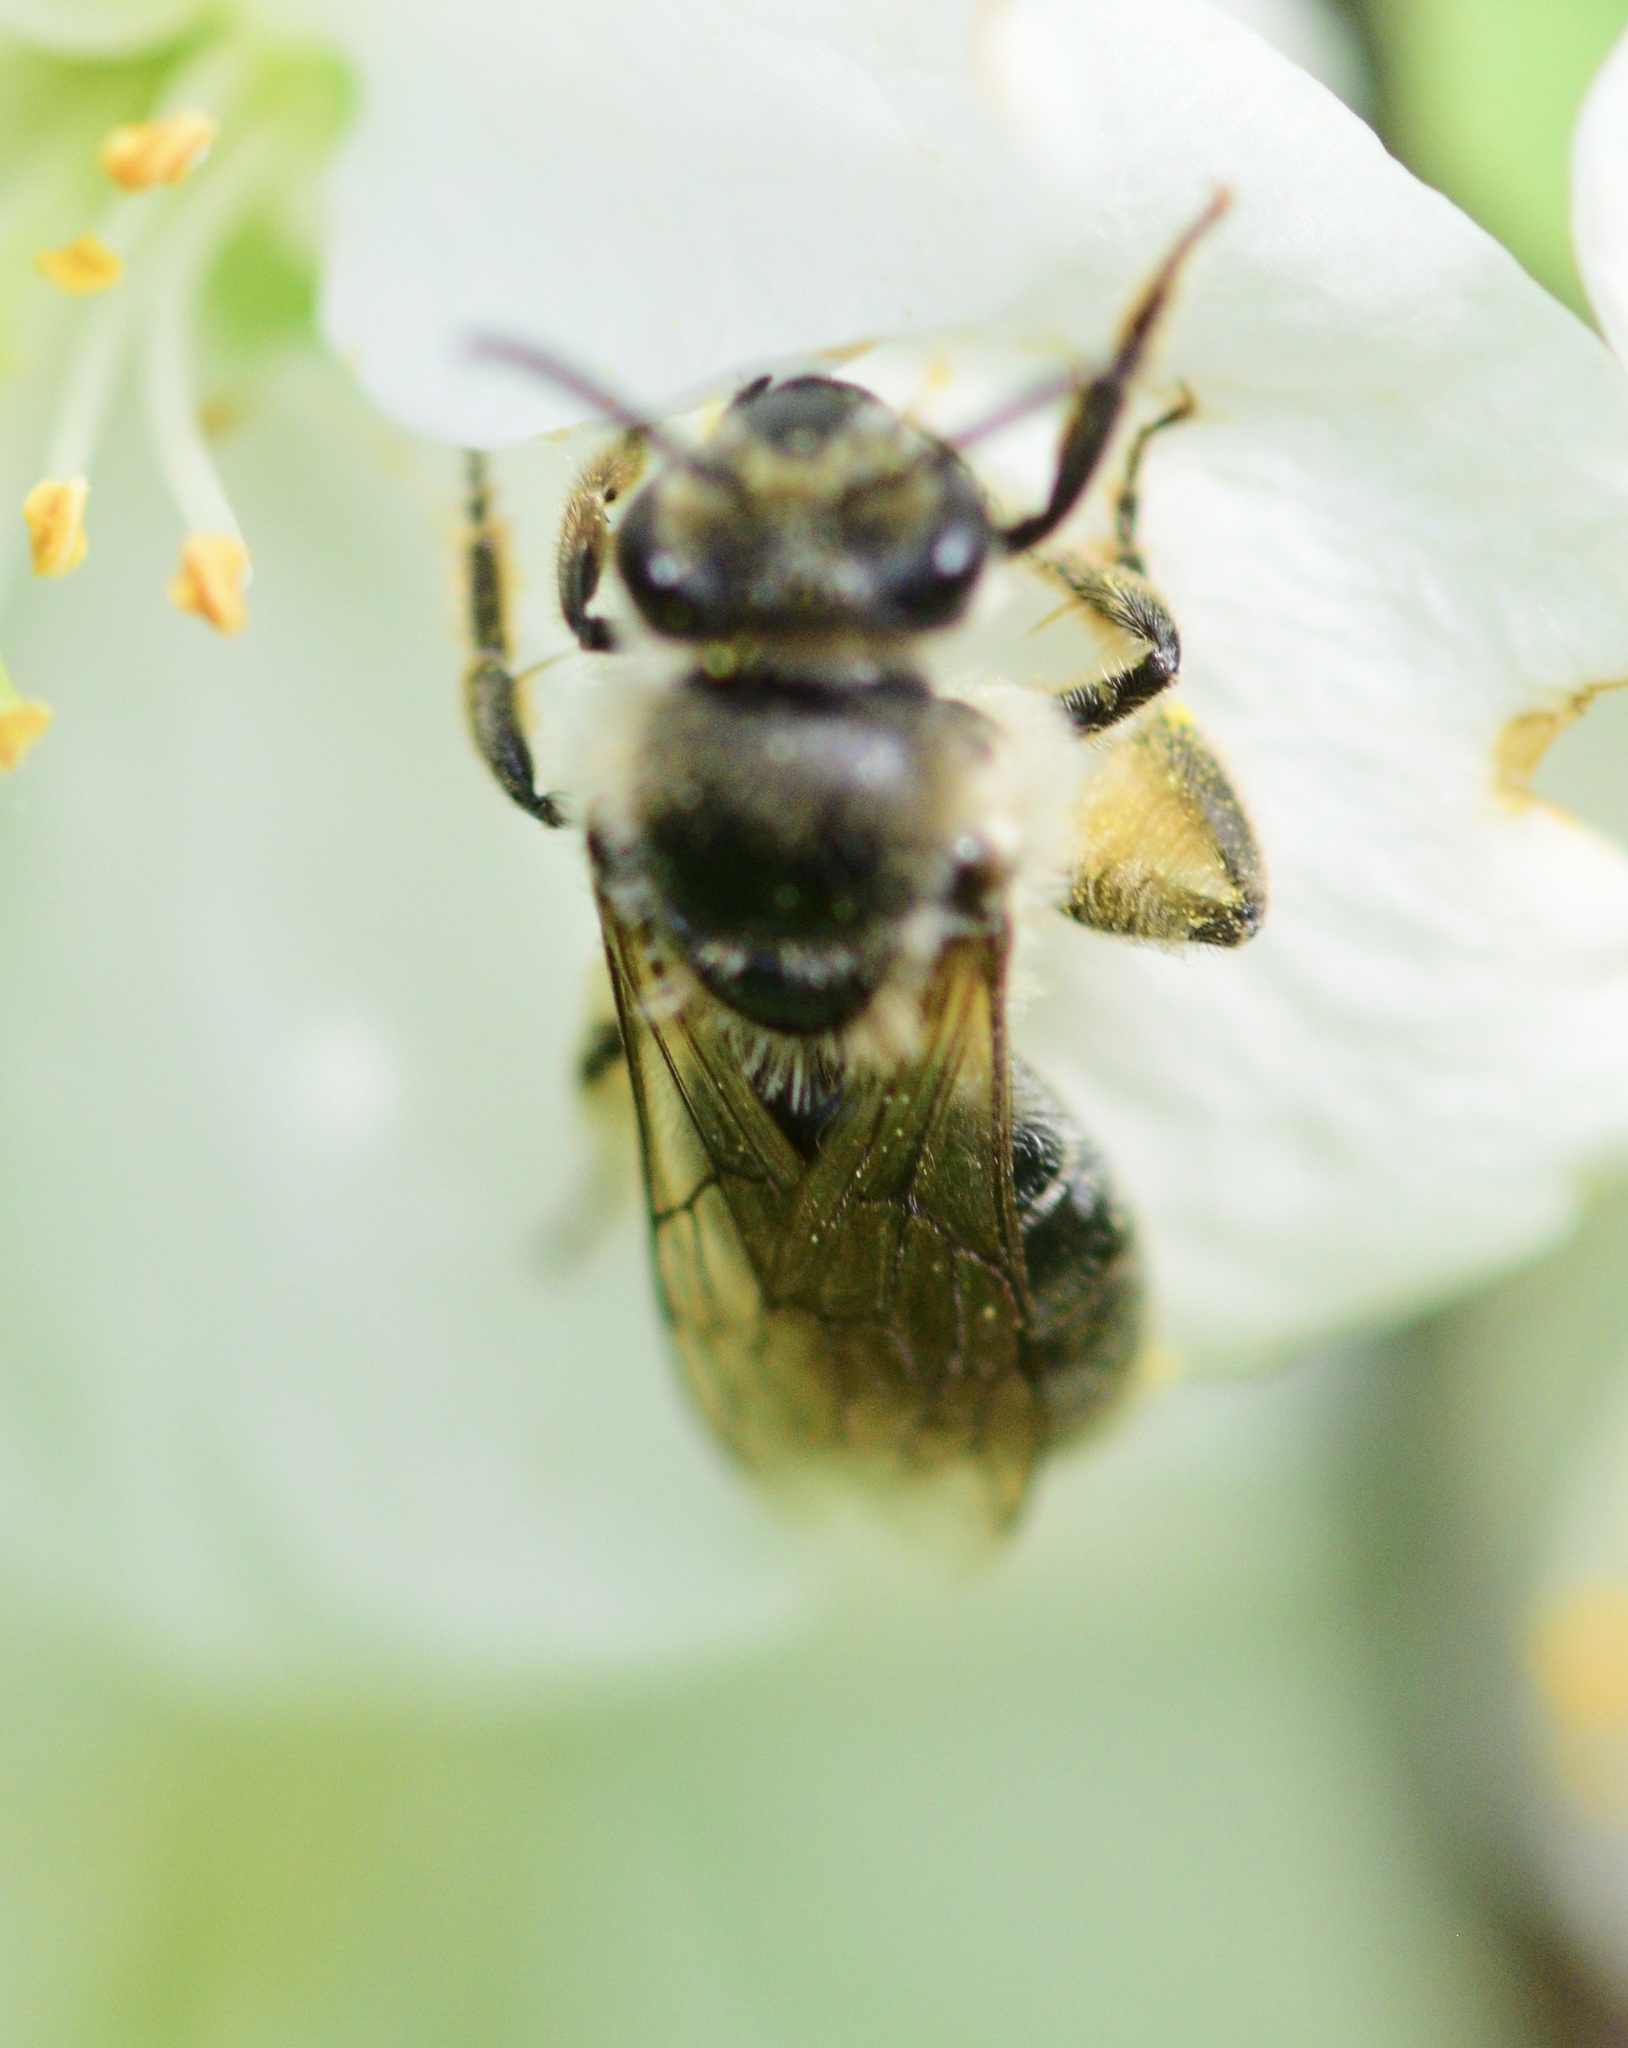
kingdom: Animalia
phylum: Arthropoda
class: Insecta
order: Hymenoptera
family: Colletidae
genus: Colletes
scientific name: Colletes inaequalis
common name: Unequal cellophane bee
